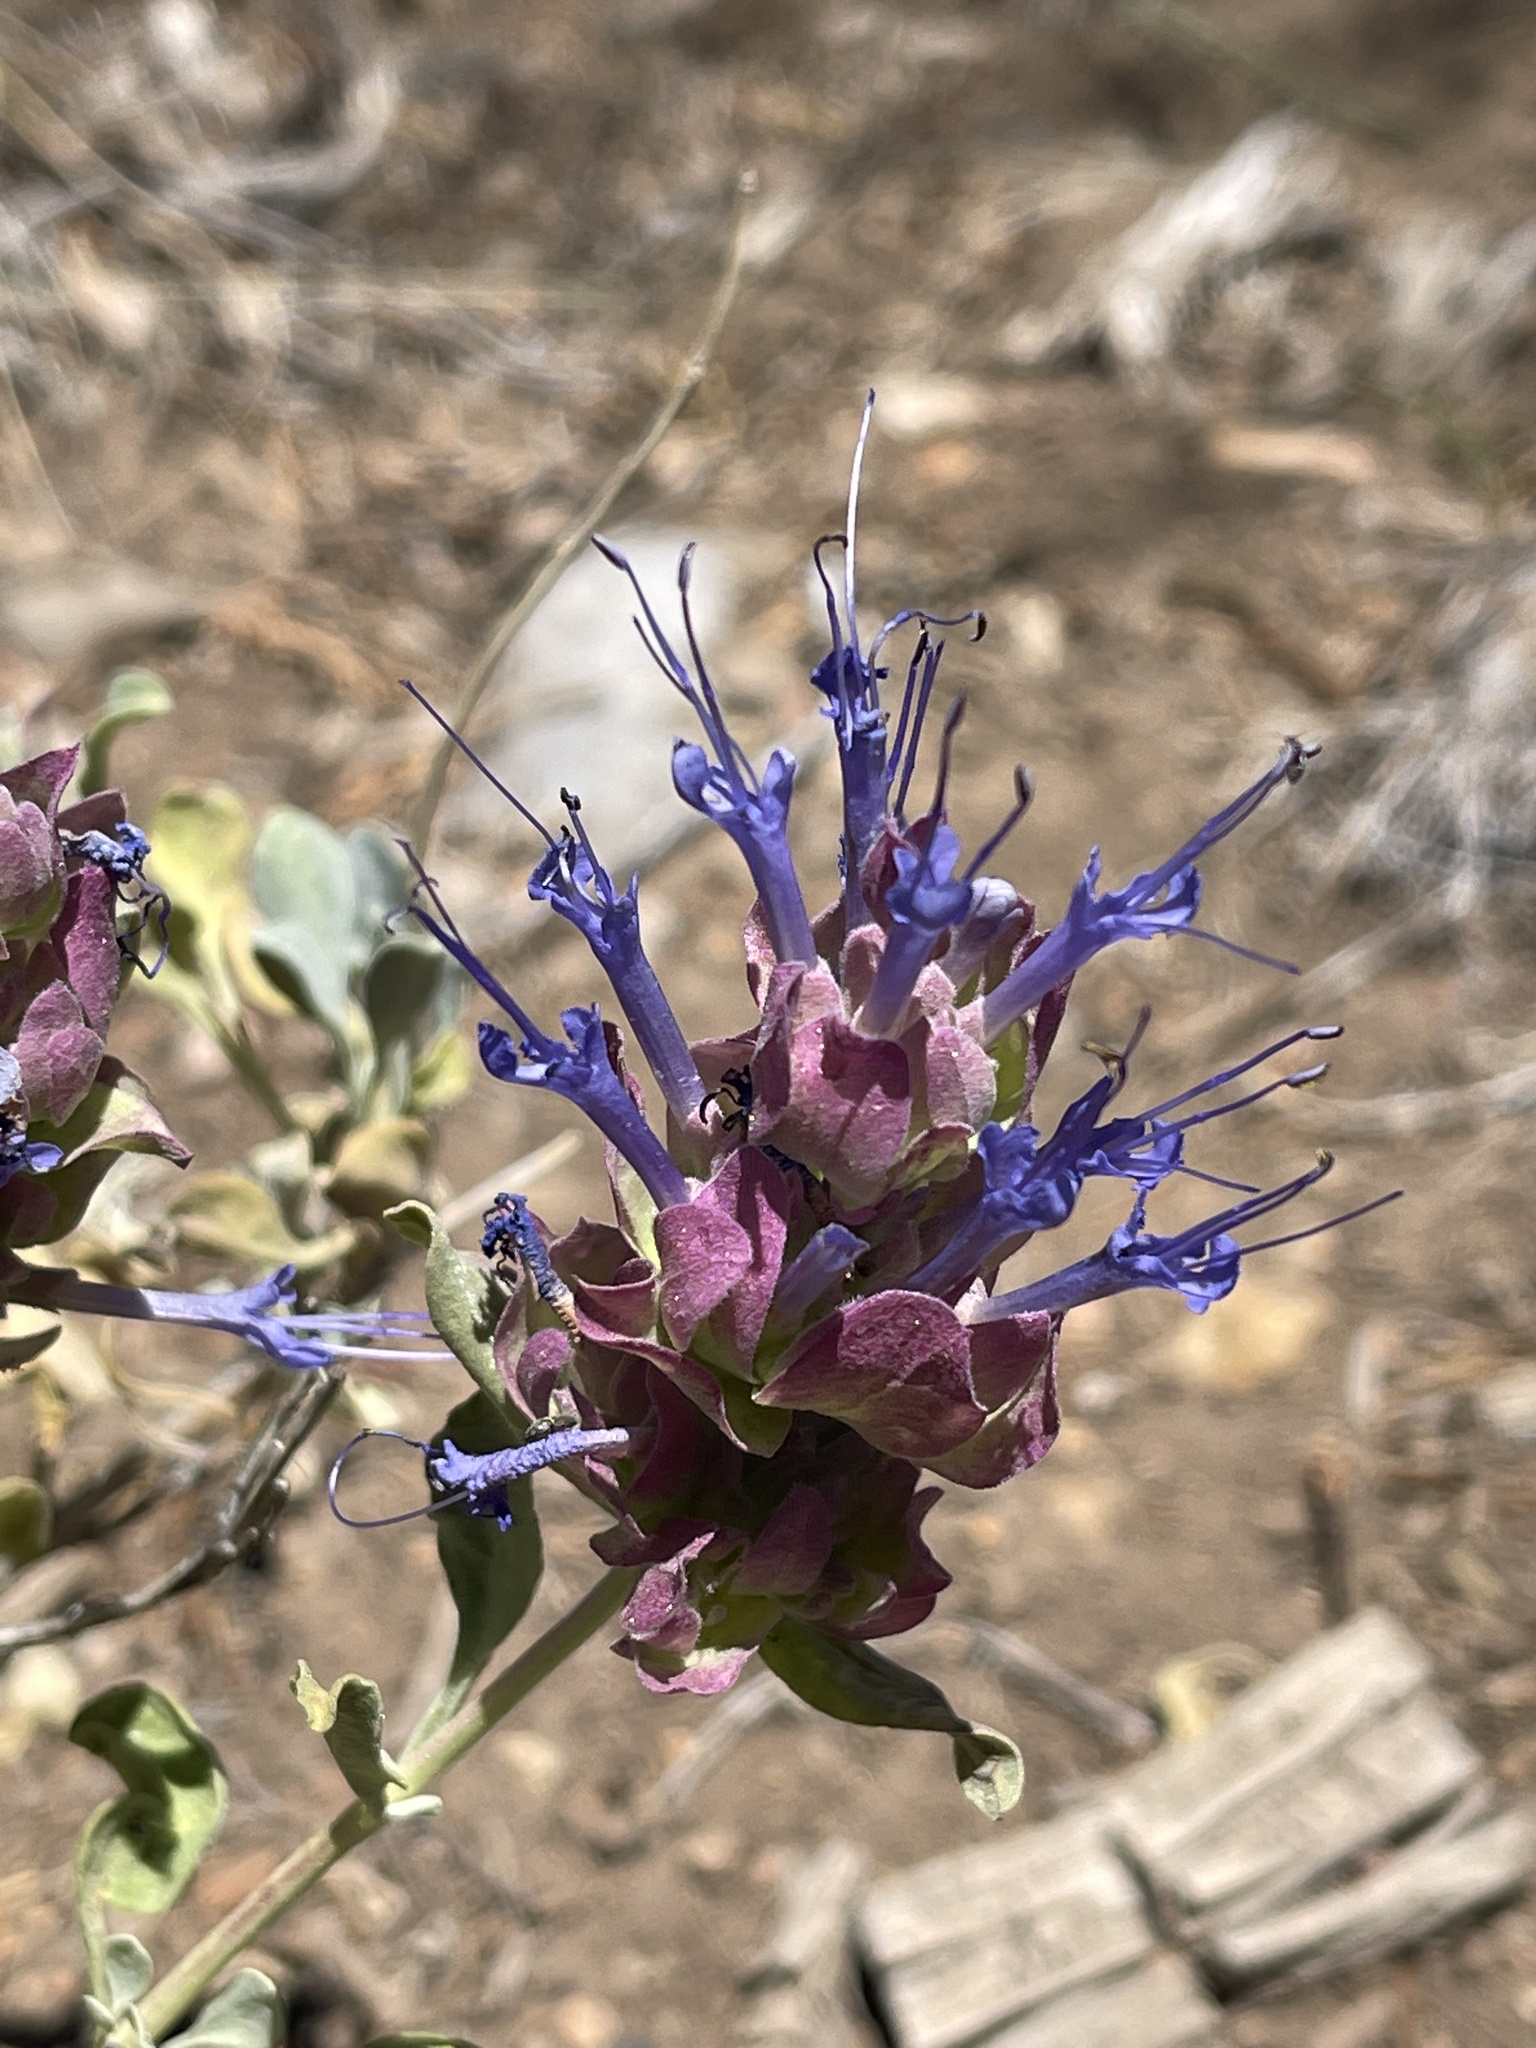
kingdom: Plantae
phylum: Tracheophyta
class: Magnoliopsida
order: Lamiales
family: Lamiaceae
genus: Salvia
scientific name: Salvia pachyphylla
